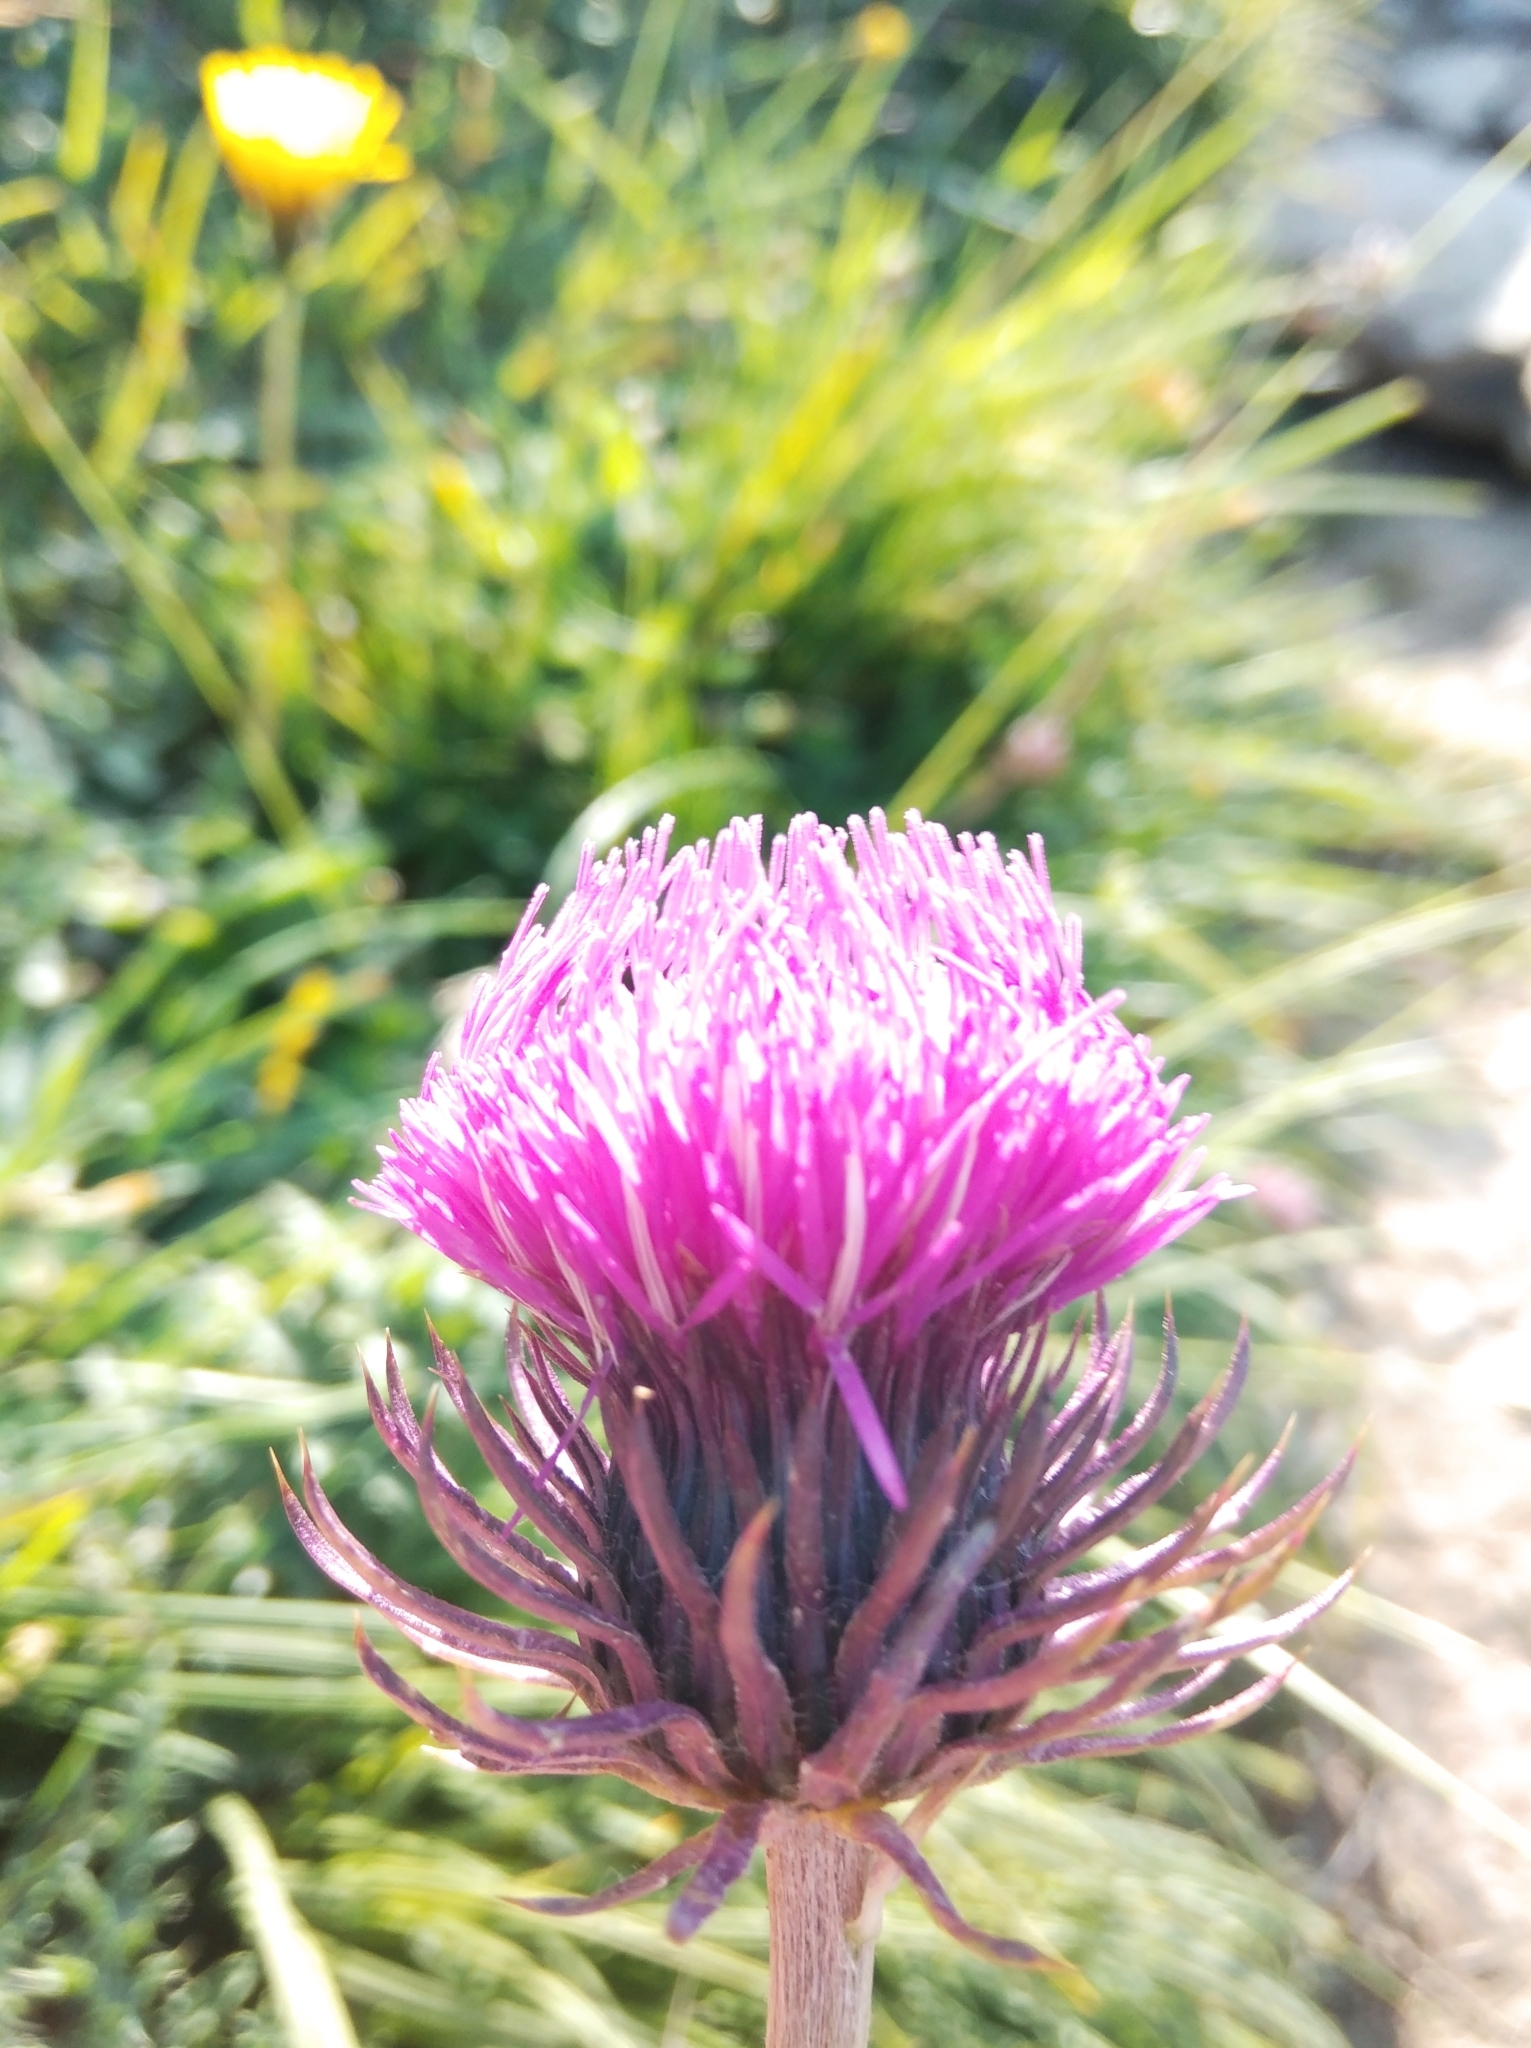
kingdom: Plantae
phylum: Tracheophyta
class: Magnoliopsida
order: Asterales
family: Asteraceae
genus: Carduus
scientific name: Carduus defloratus
